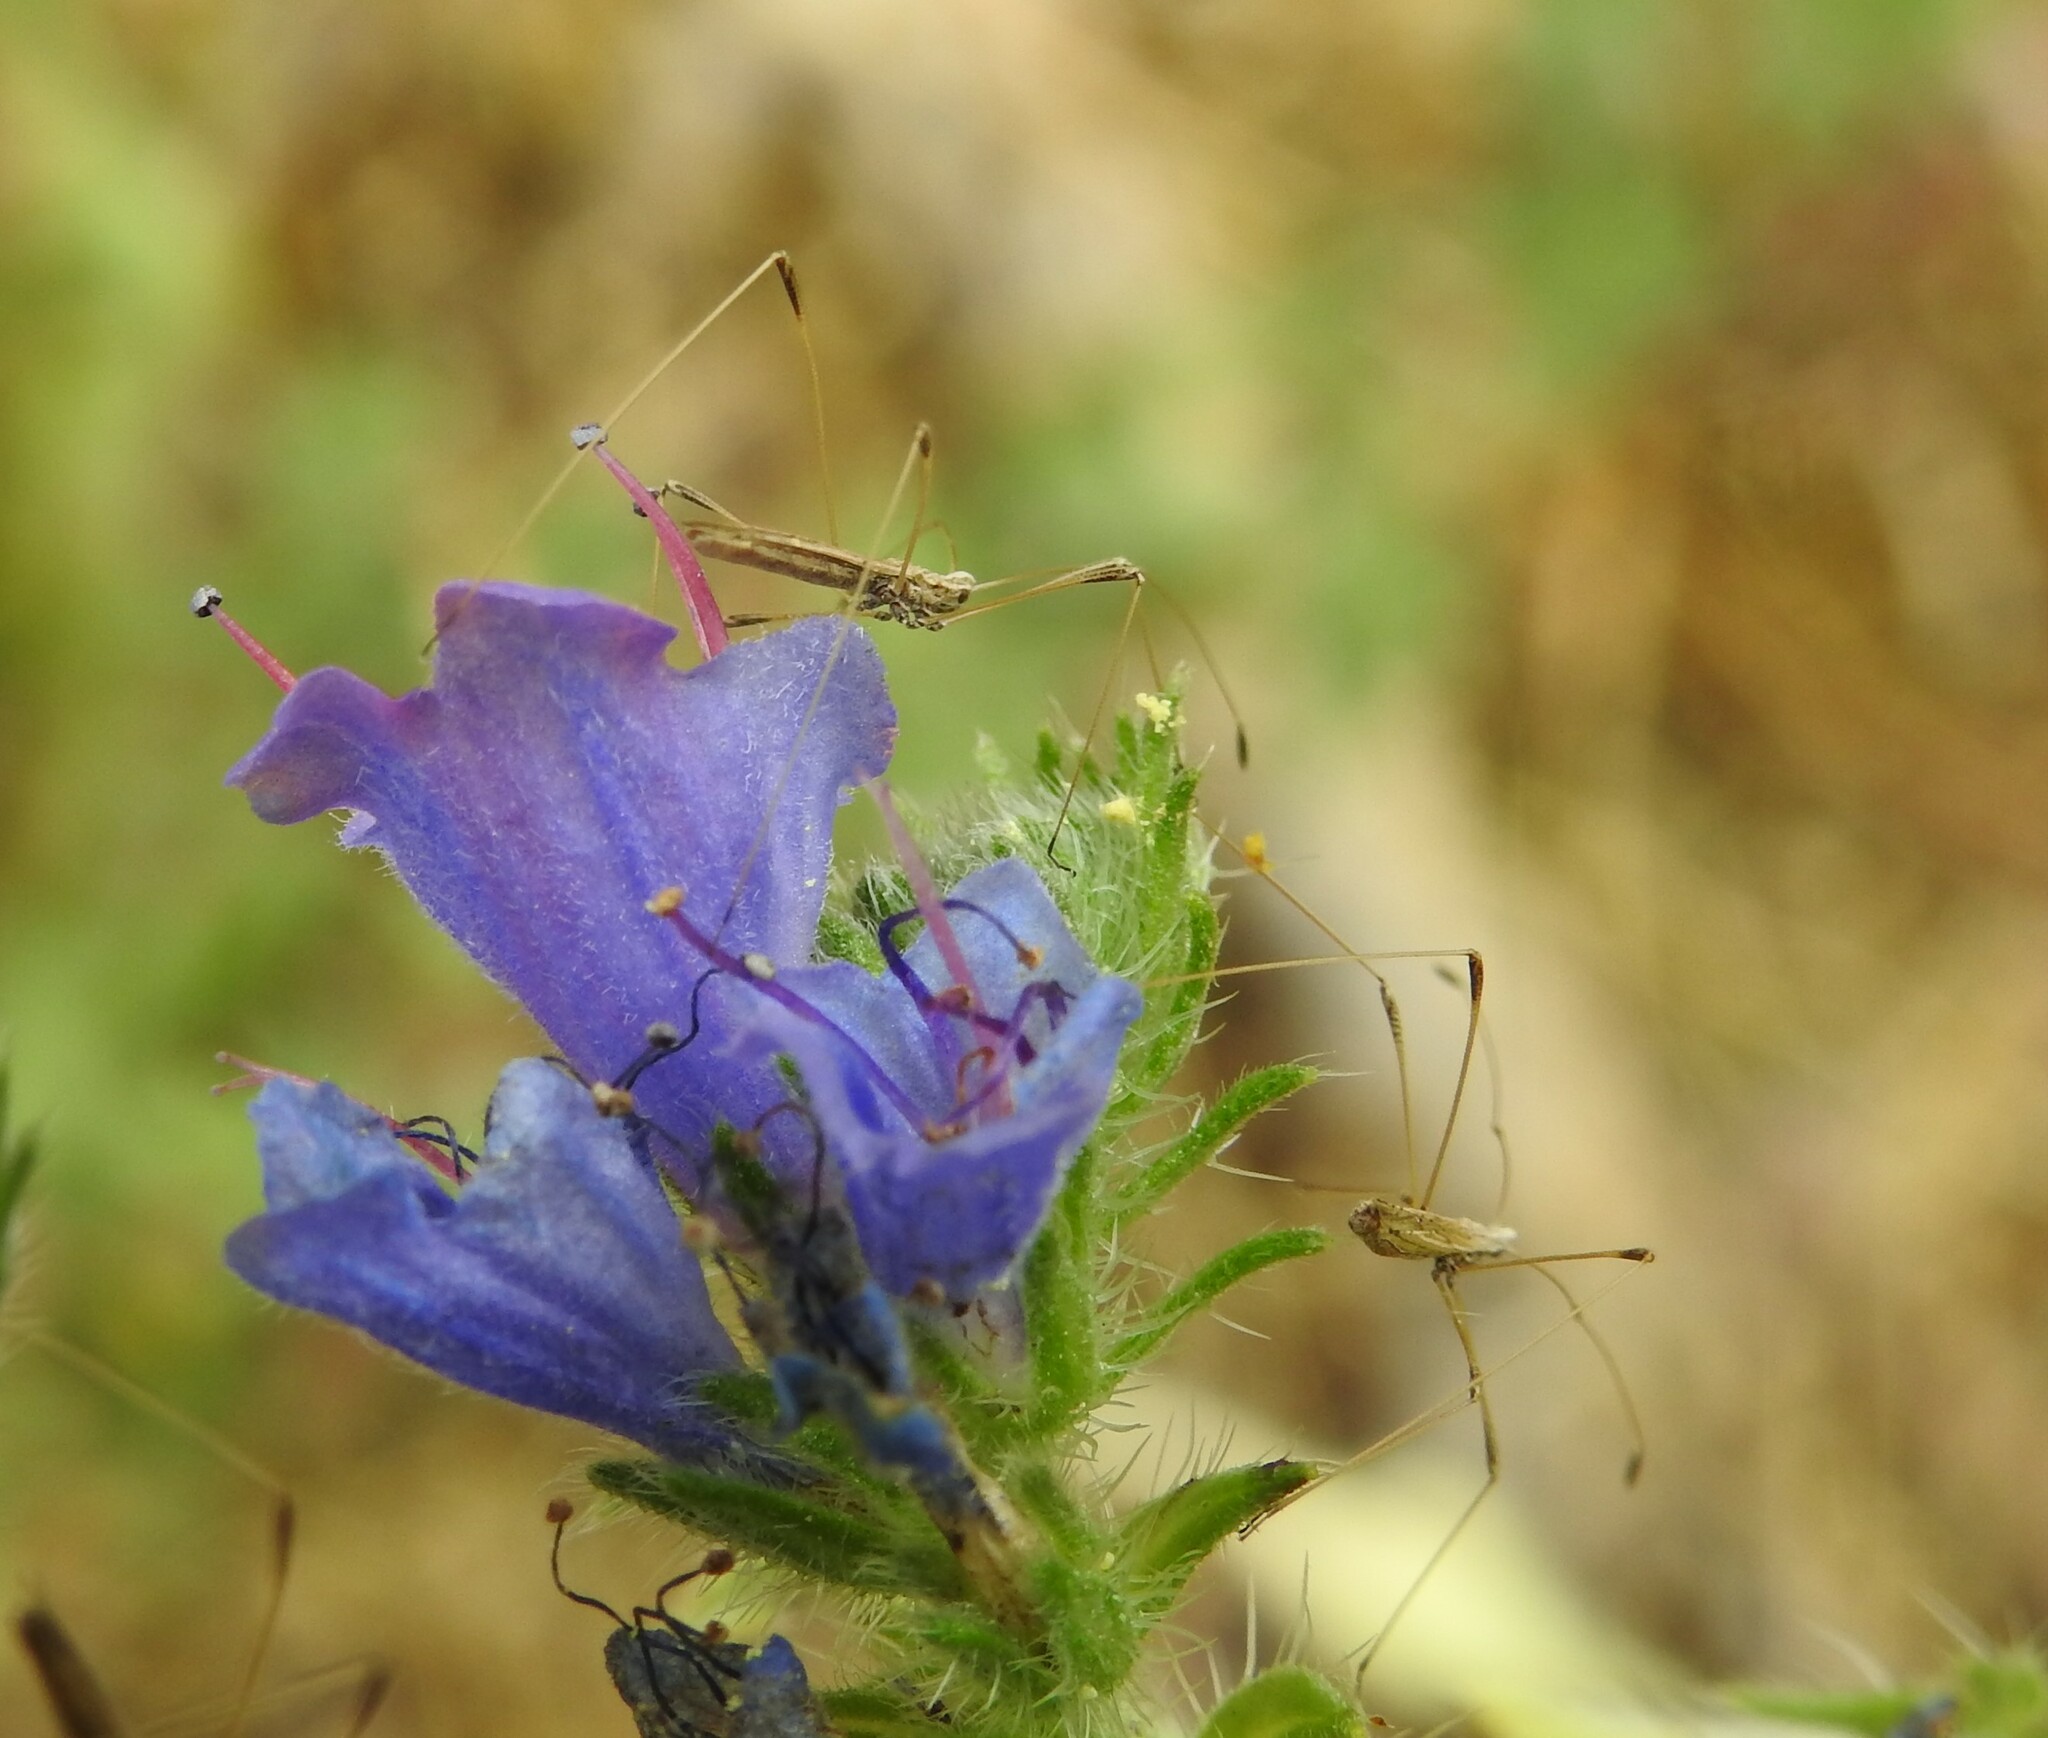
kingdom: Animalia
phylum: Arthropoda
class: Insecta
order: Hemiptera
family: Berytidae
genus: Neides
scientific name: Neides tipularius
